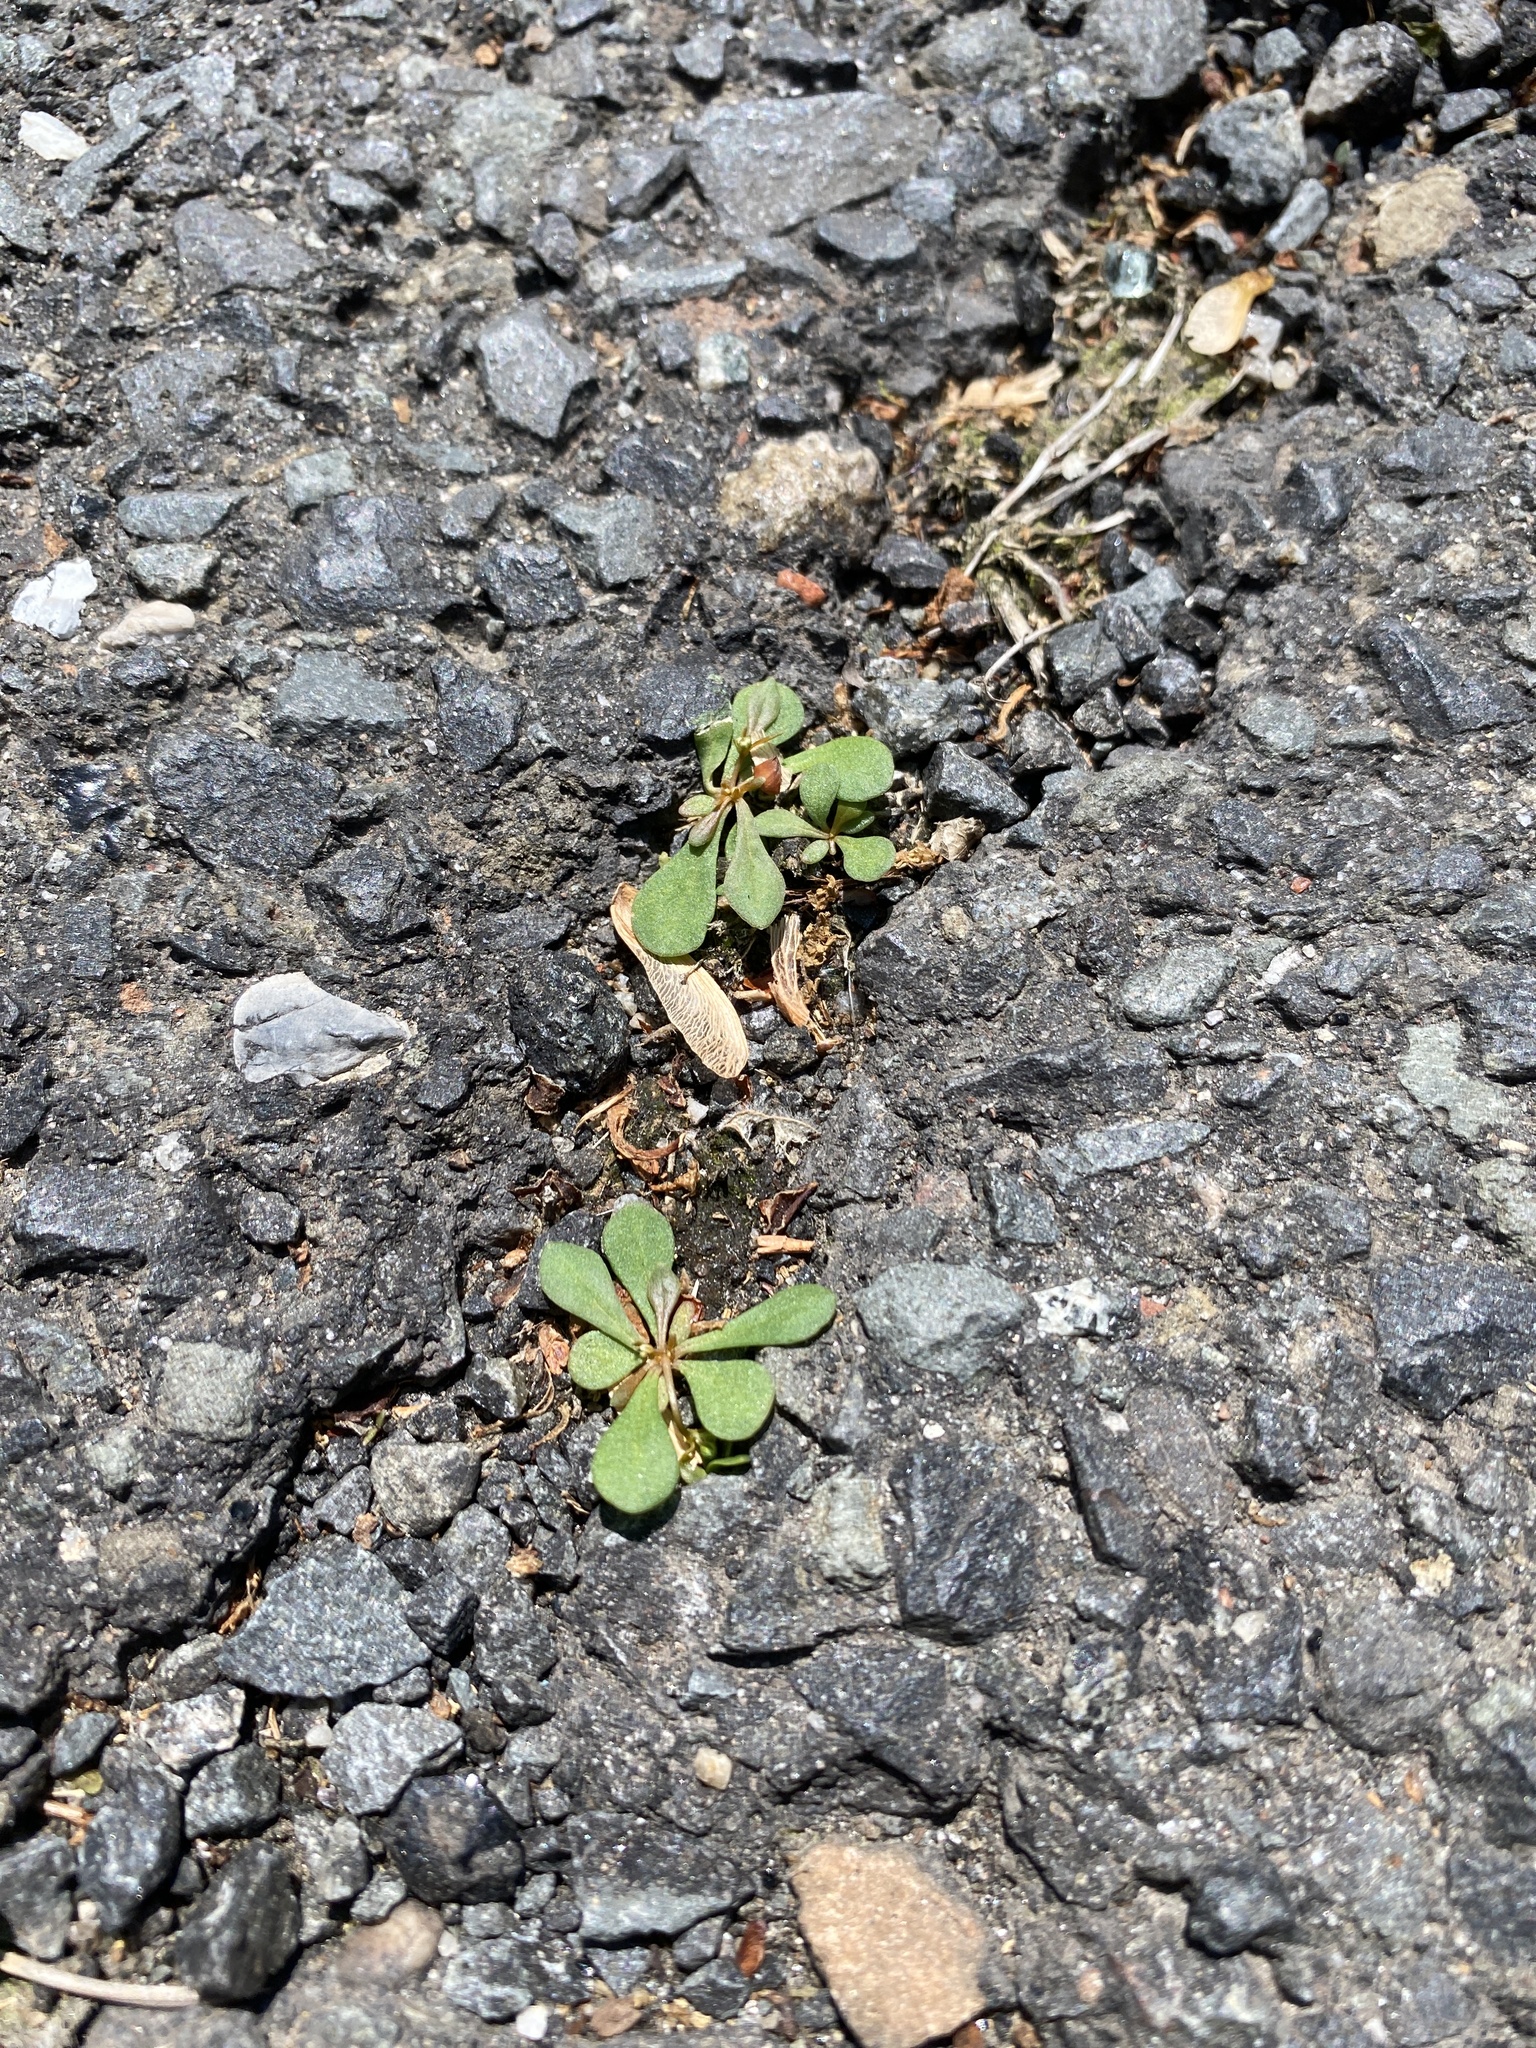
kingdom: Plantae
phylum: Tracheophyta
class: Magnoliopsida
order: Caryophyllales
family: Molluginaceae
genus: Mollugo
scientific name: Mollugo verticillata
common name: Green carpetweed
